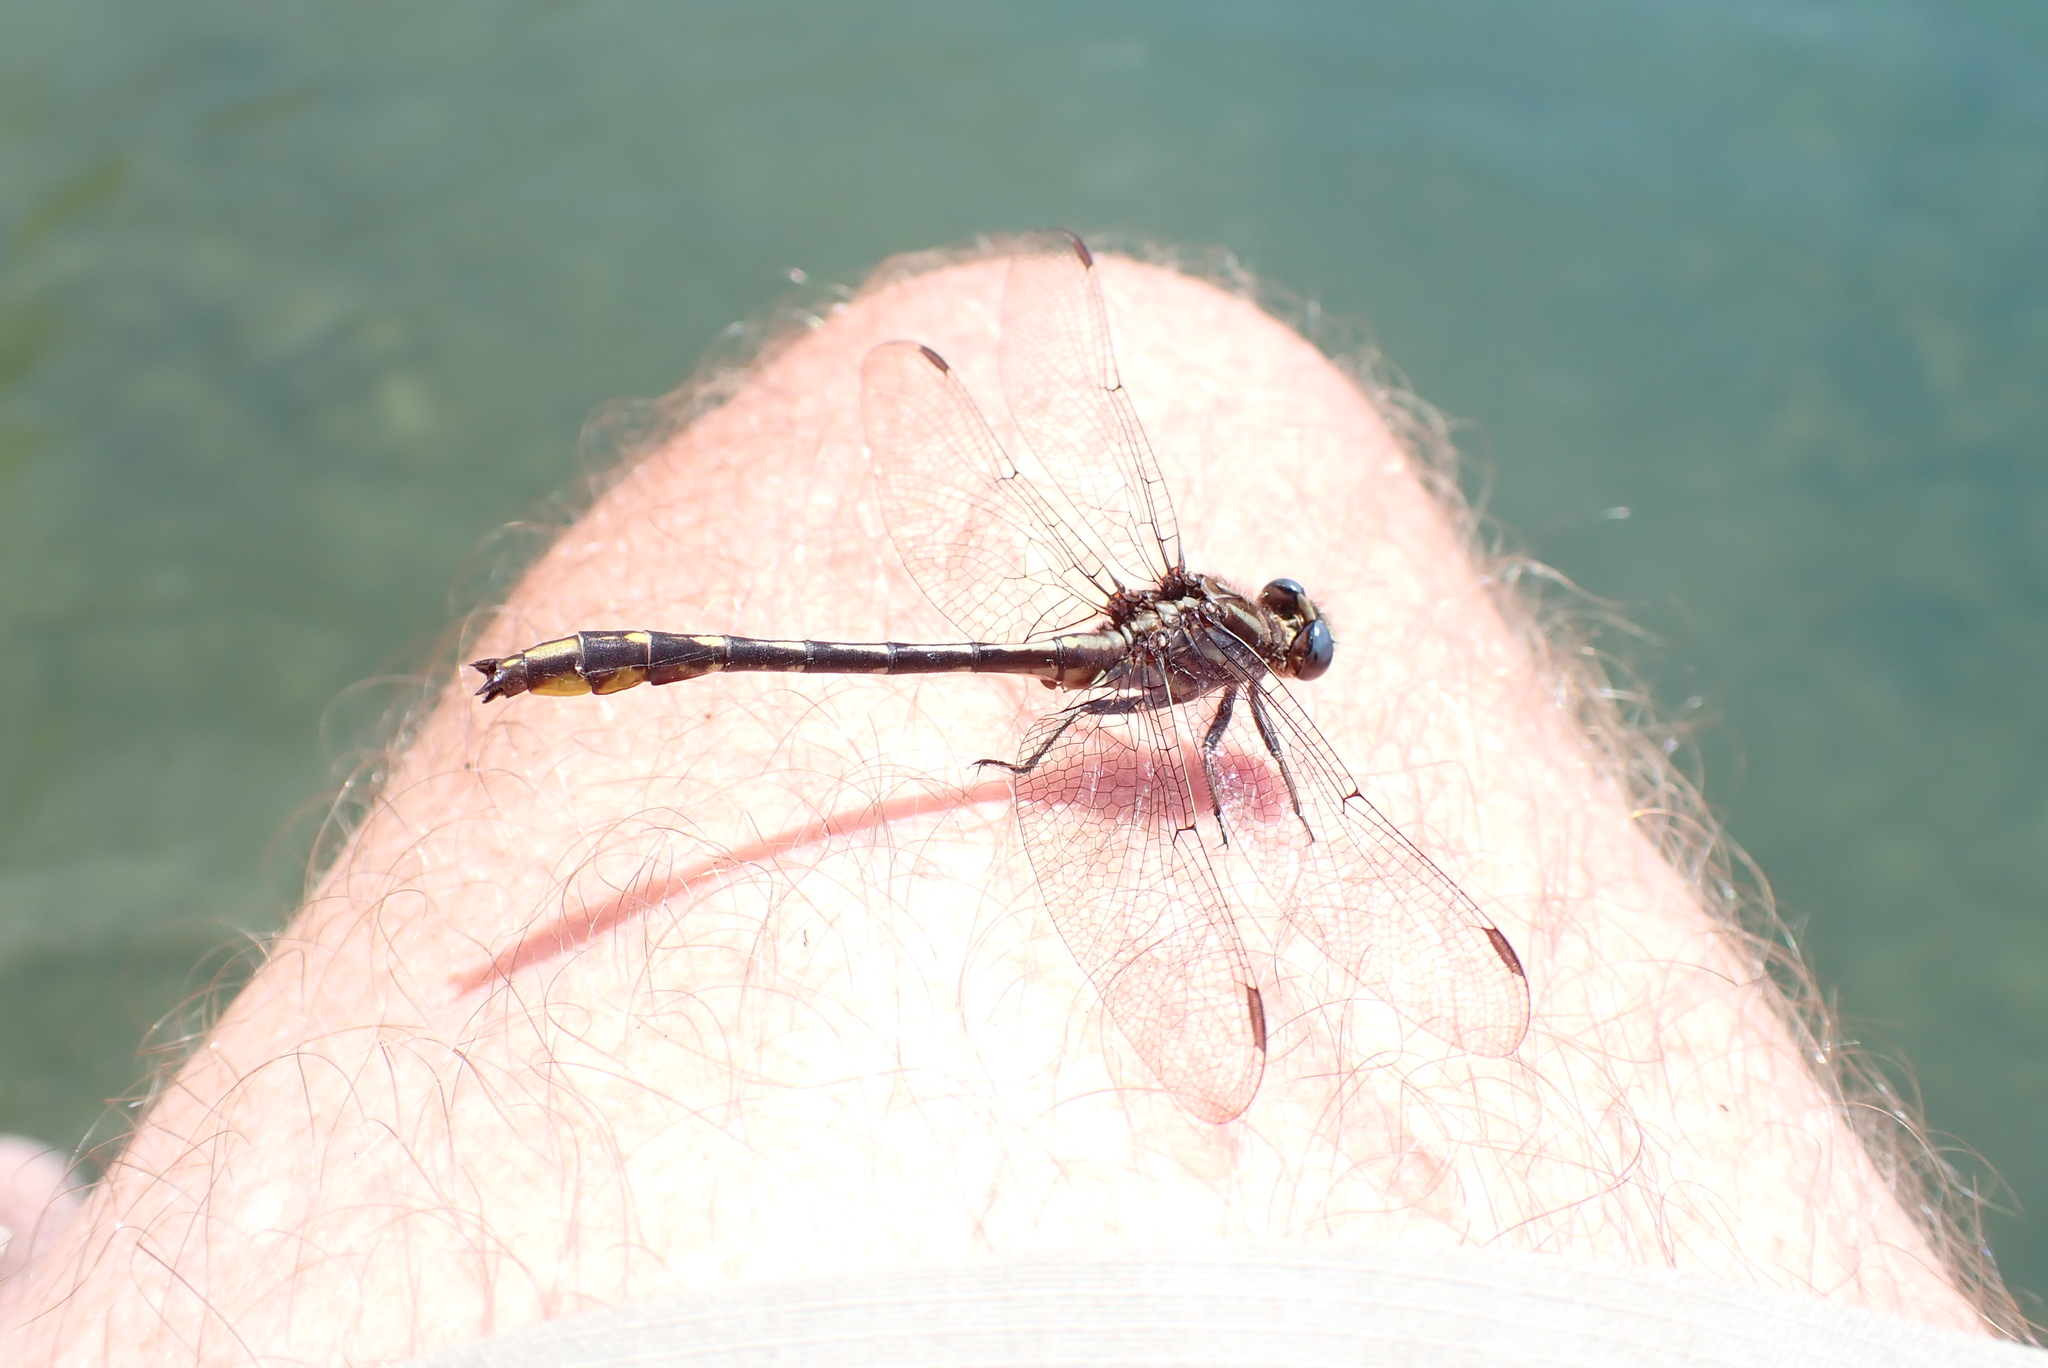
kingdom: Animalia
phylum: Arthropoda
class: Insecta
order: Odonata
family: Gomphidae
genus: Phanogomphus
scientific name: Phanogomphus exilis
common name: Lancet clubtail
